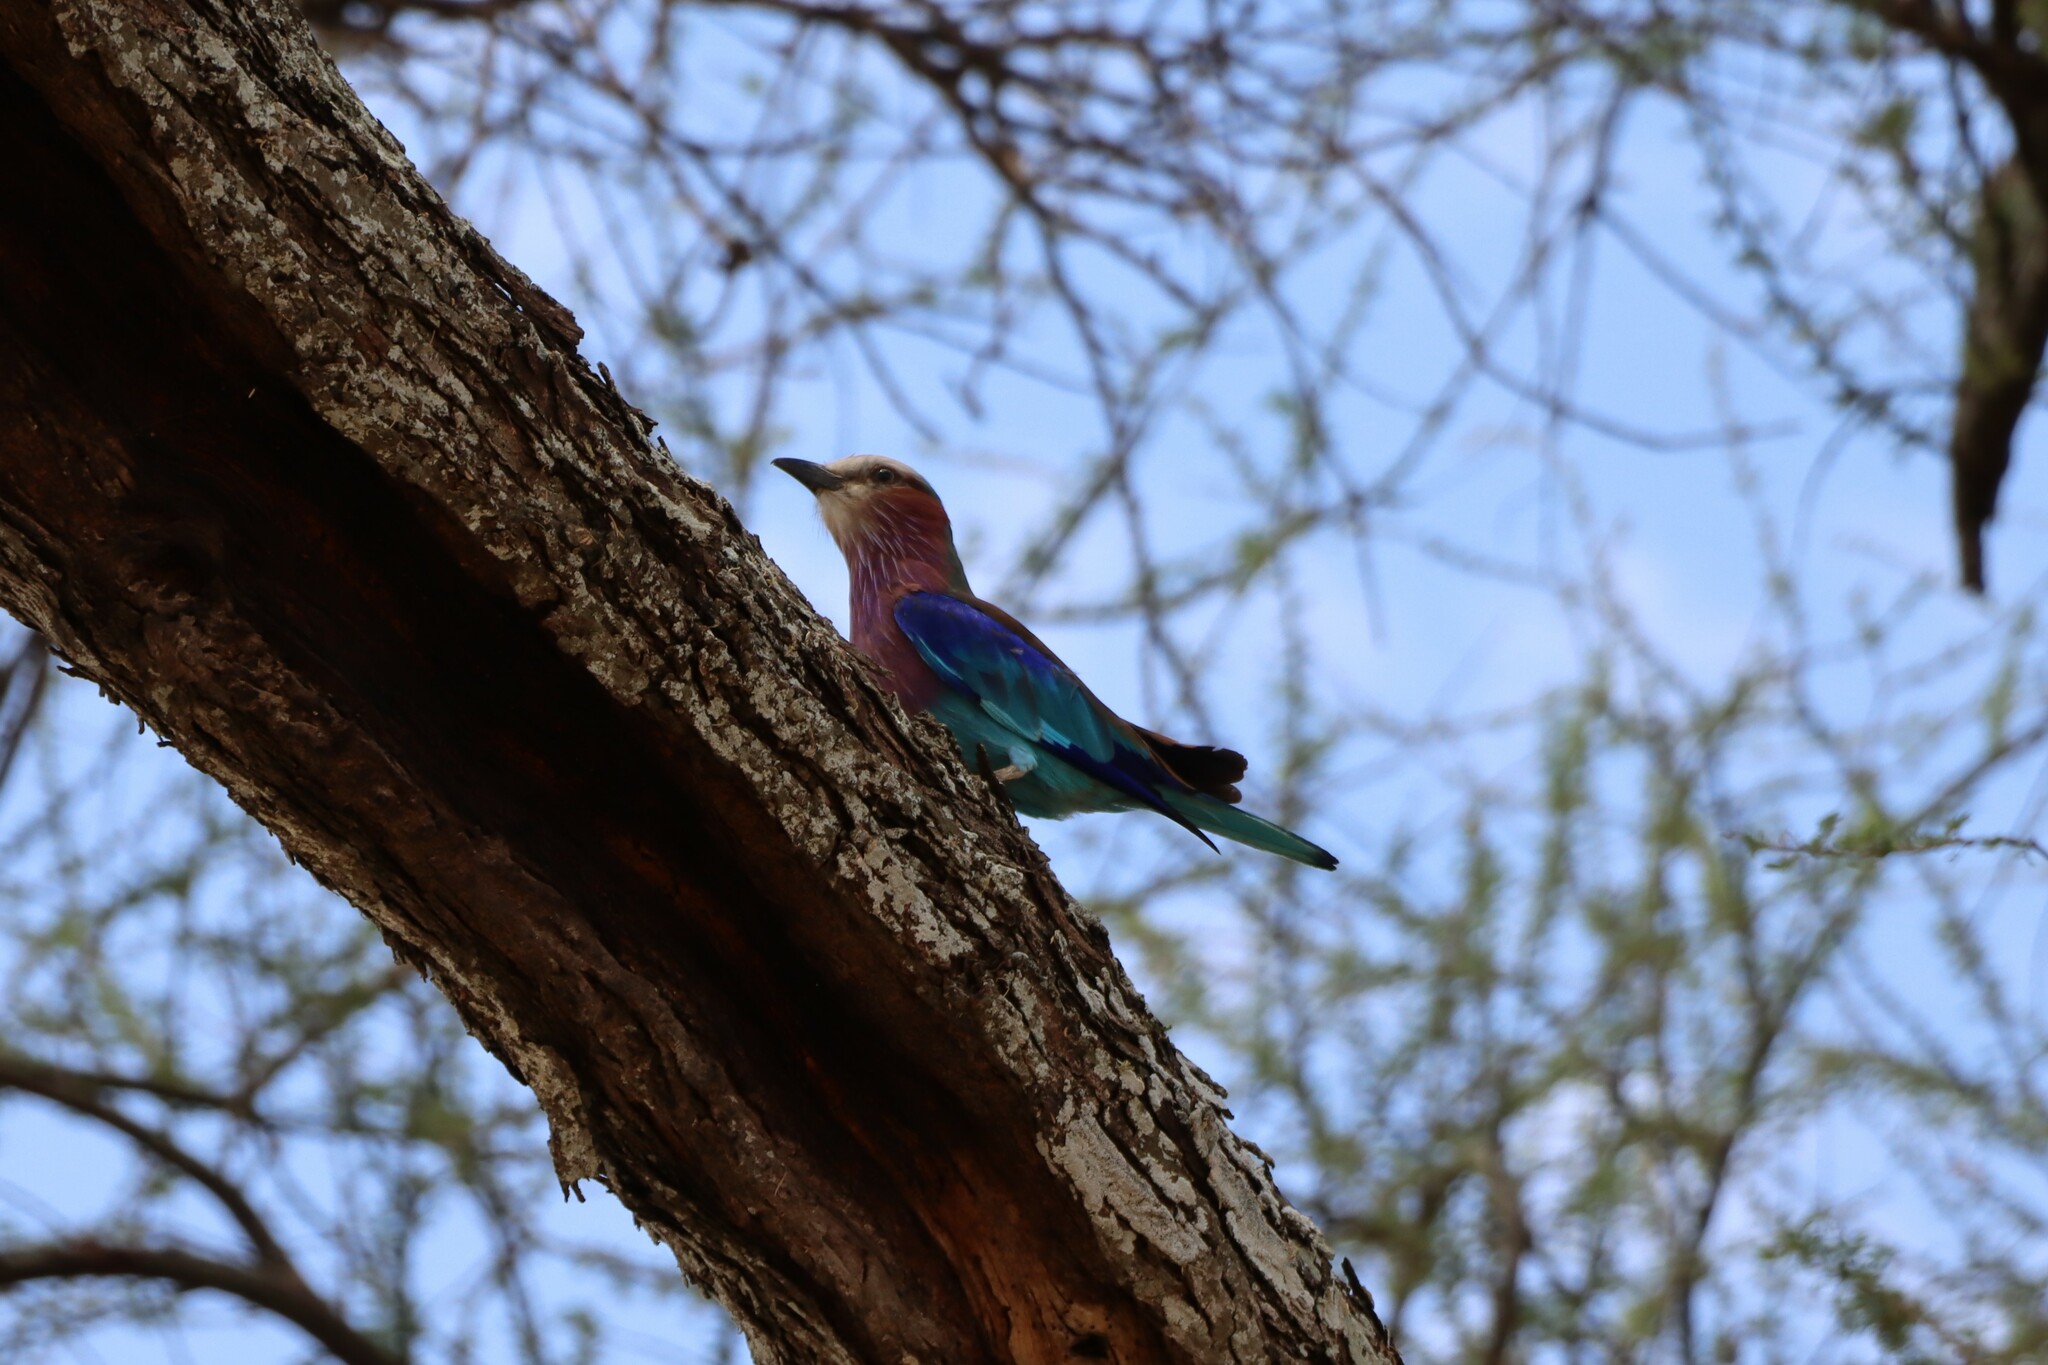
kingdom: Animalia
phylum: Chordata
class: Aves
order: Coraciiformes
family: Coraciidae
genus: Coracias
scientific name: Coracias caudatus
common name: Lilac-breasted roller
